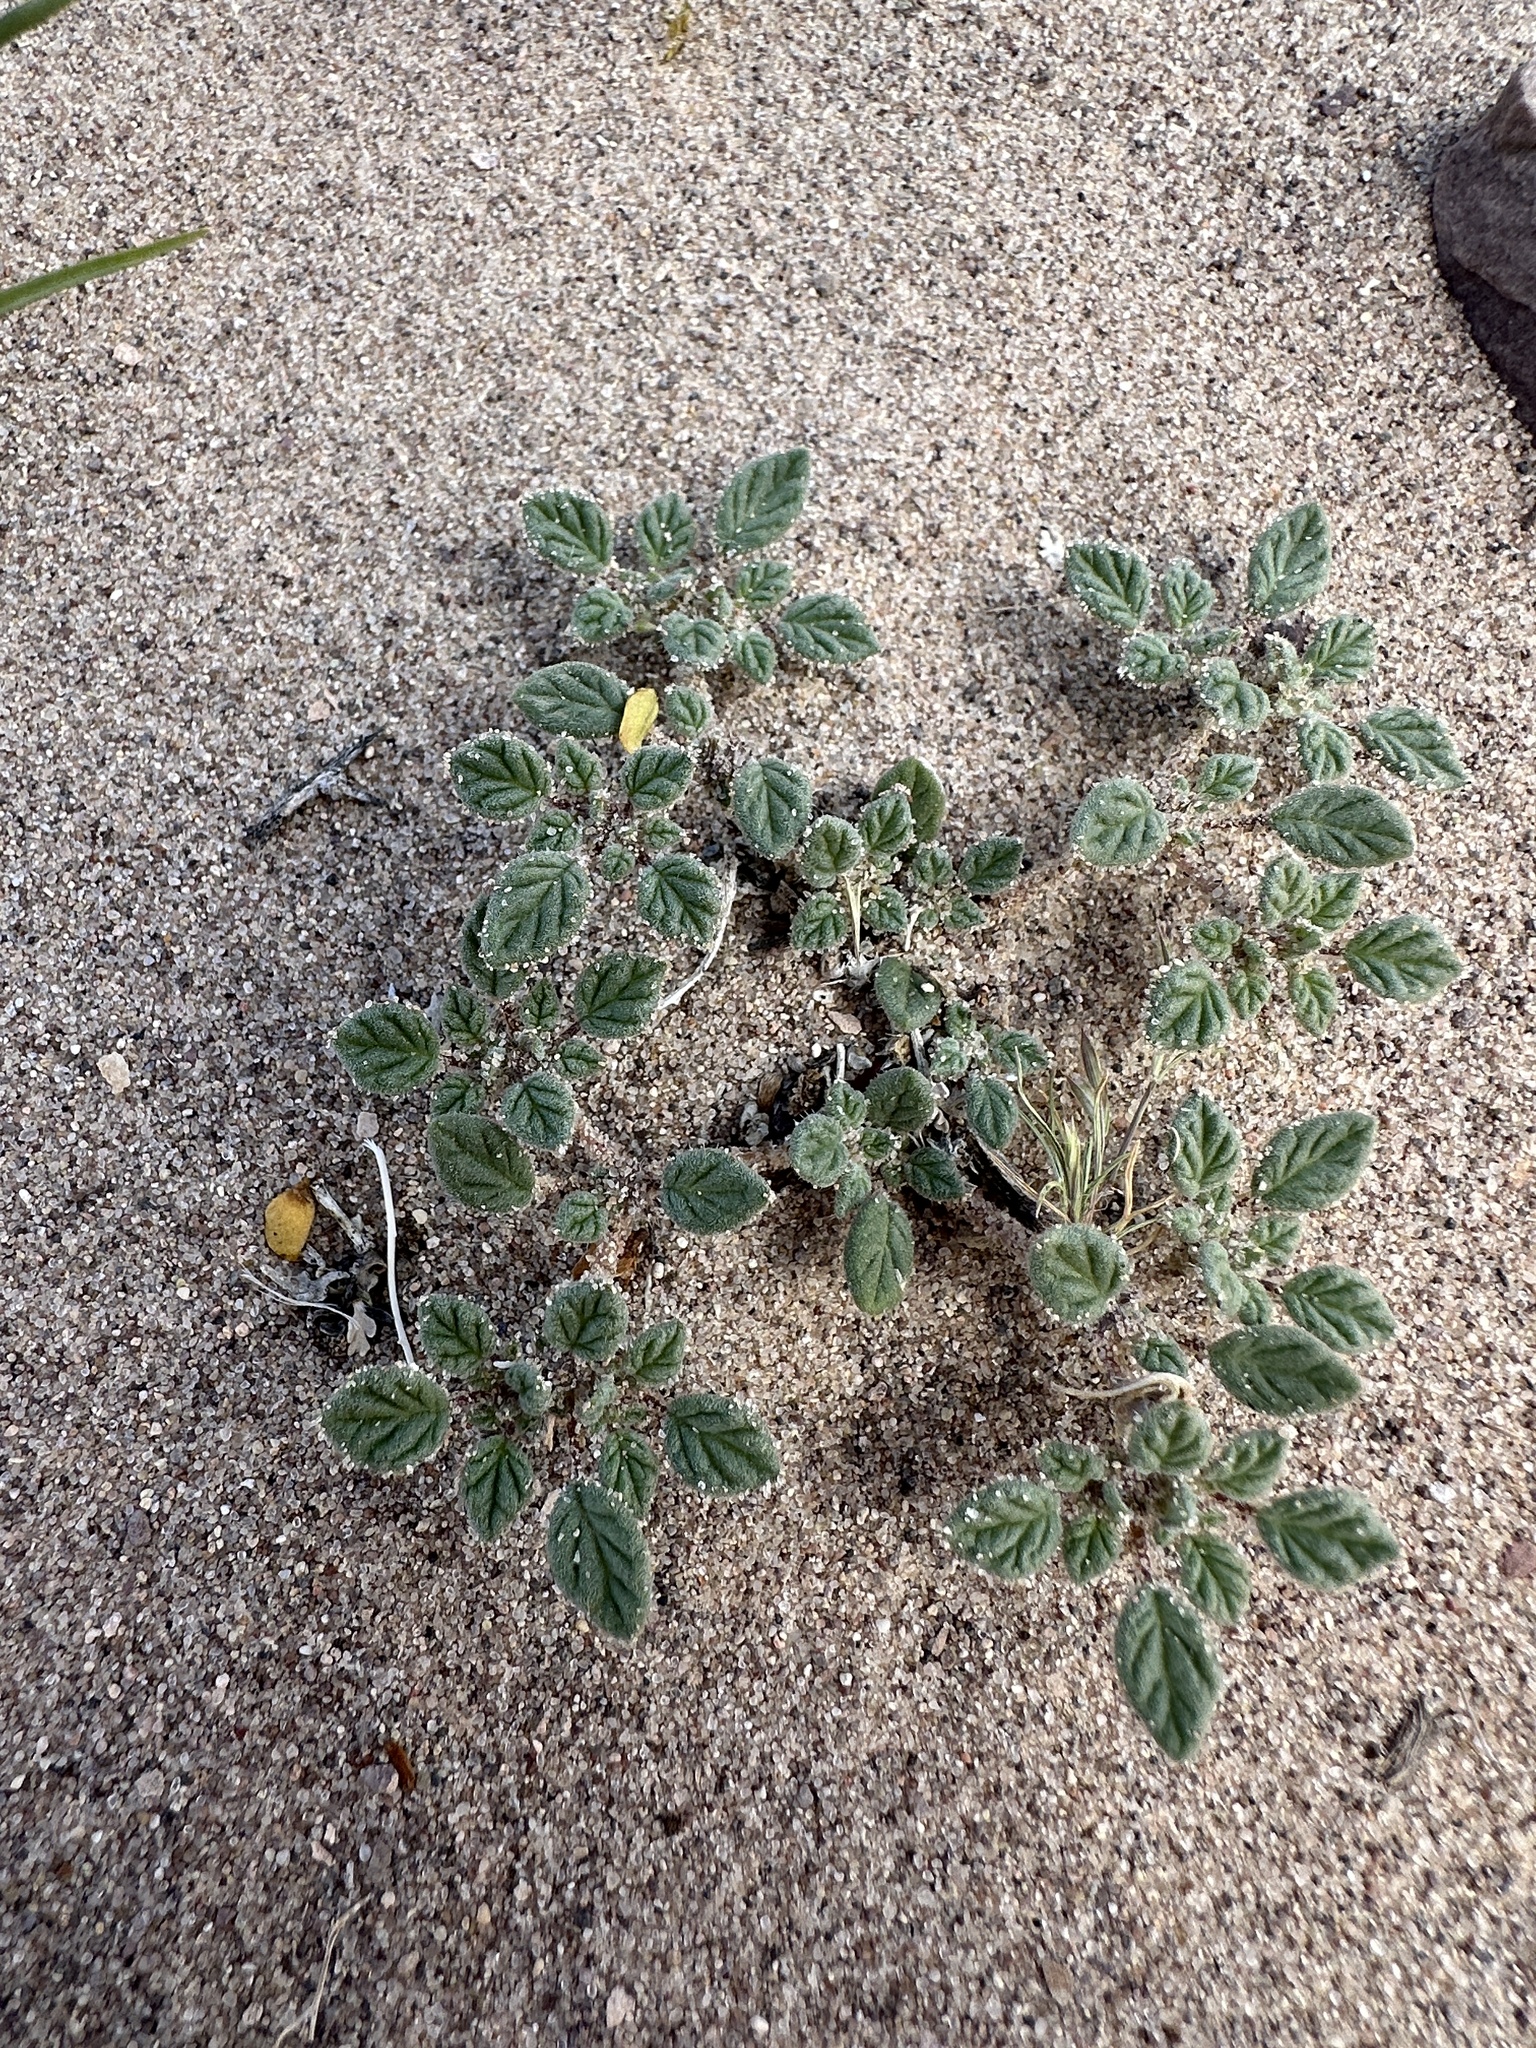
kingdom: Plantae
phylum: Tracheophyta
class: Magnoliopsida
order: Boraginales
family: Ehretiaceae
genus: Tiquilia
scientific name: Tiquilia nuttallii
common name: Rosette tiquilia
